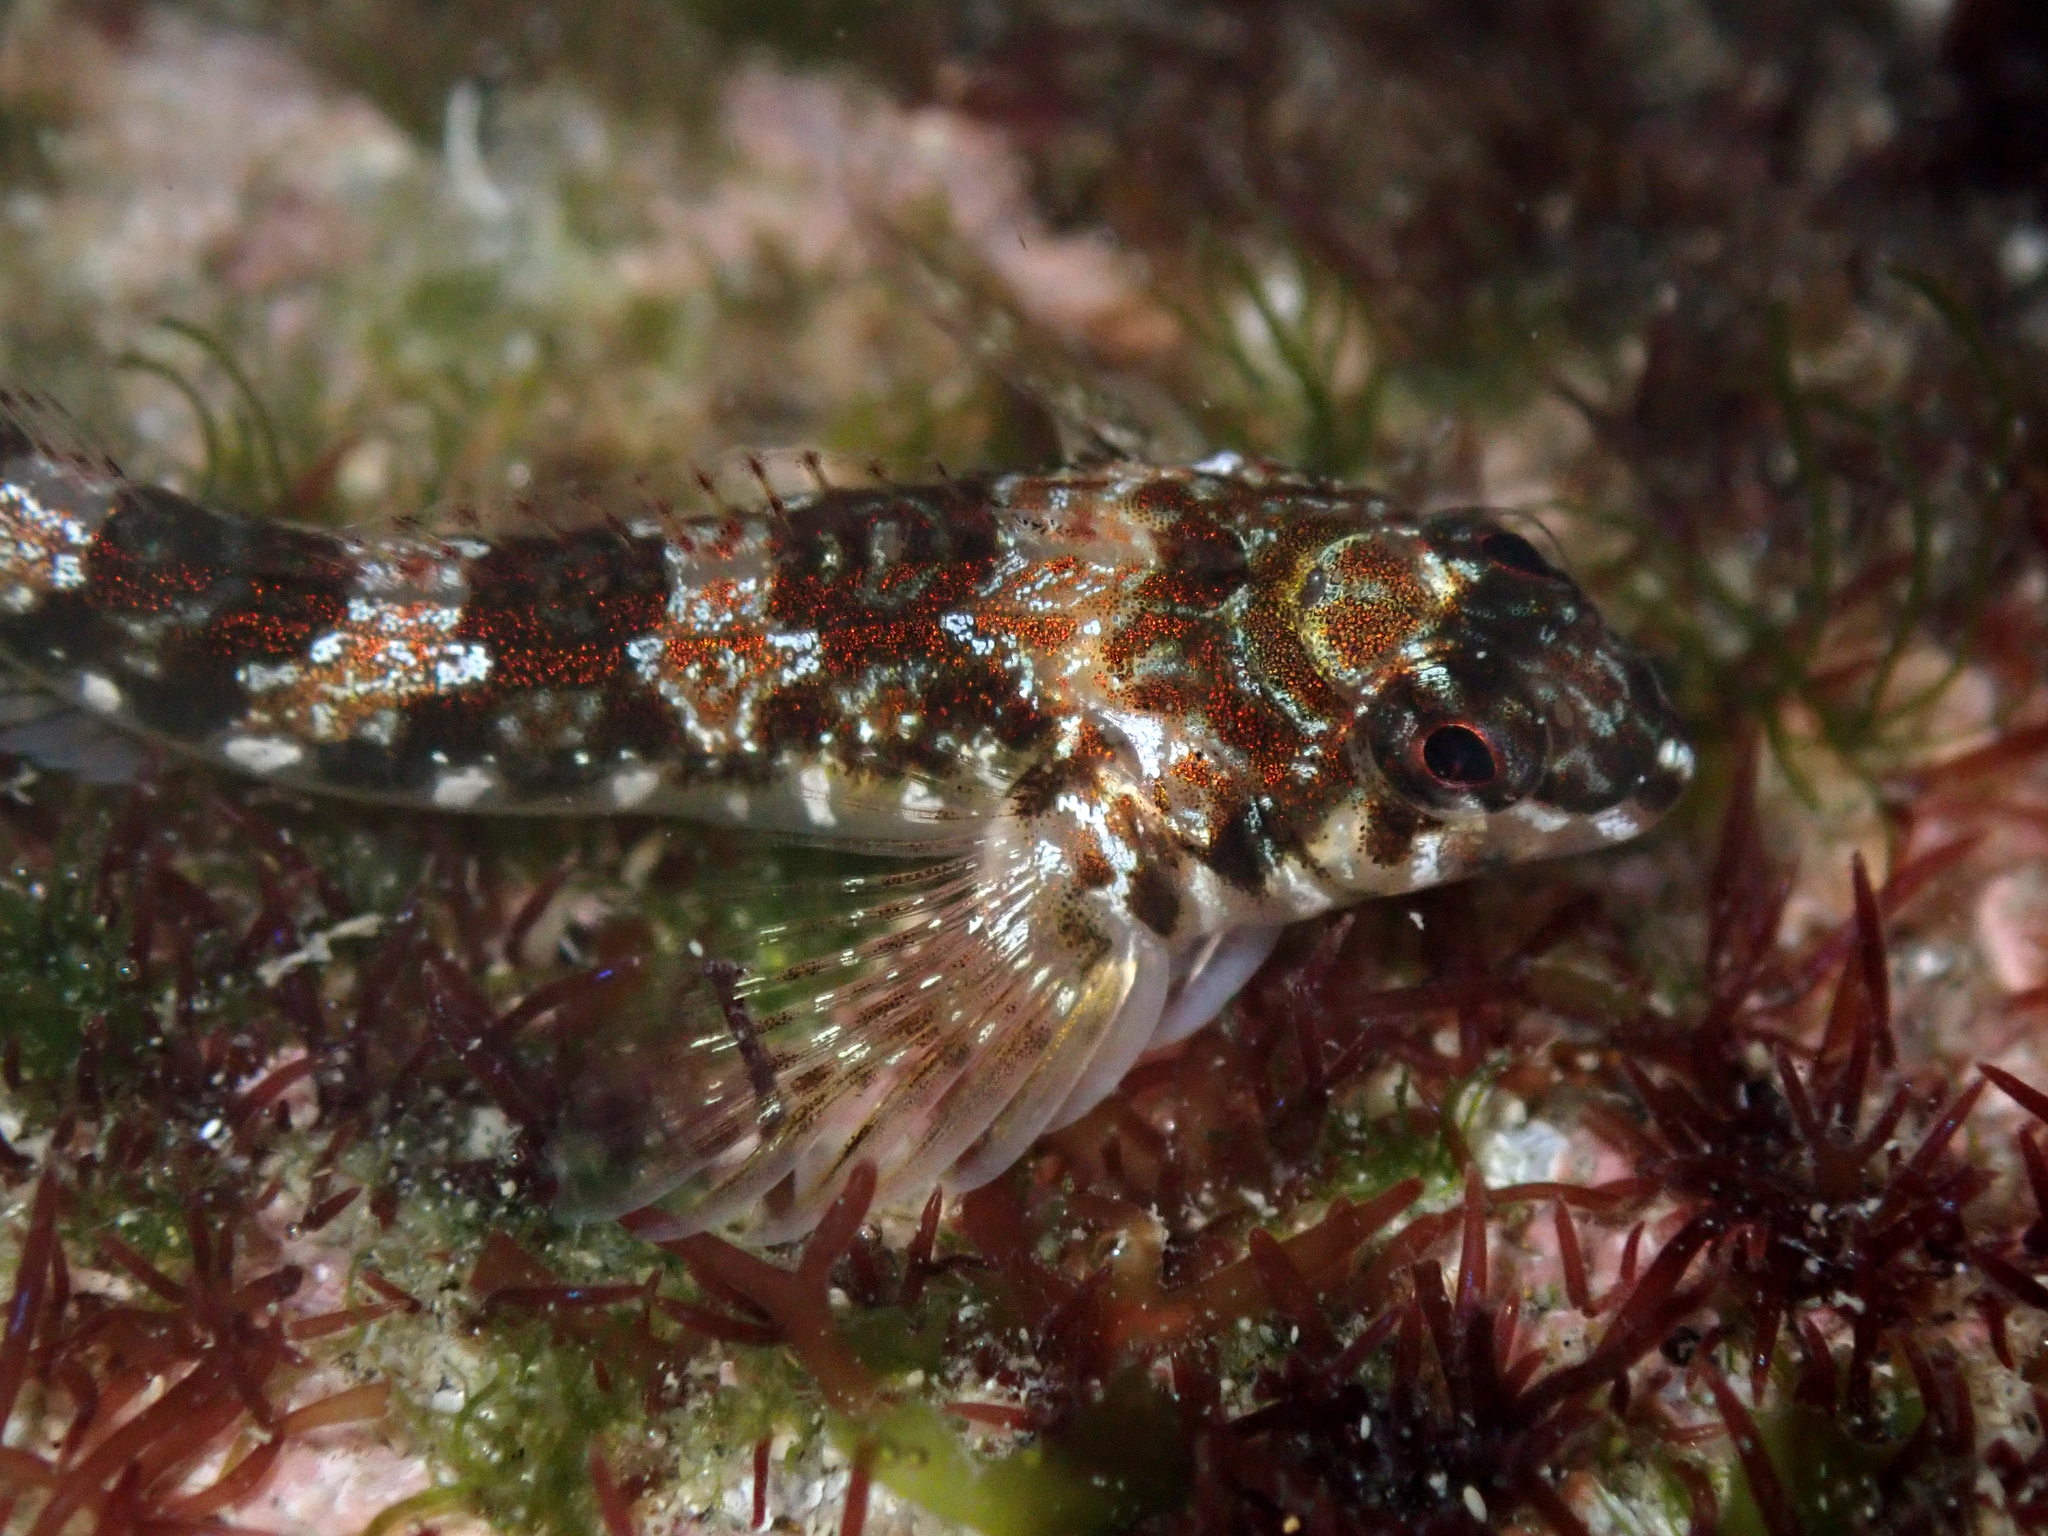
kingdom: Animalia
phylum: Chordata
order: Perciformes
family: Tripterygiidae
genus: Bellapiscis
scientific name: Bellapiscis lesleyae
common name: Mottled twister
